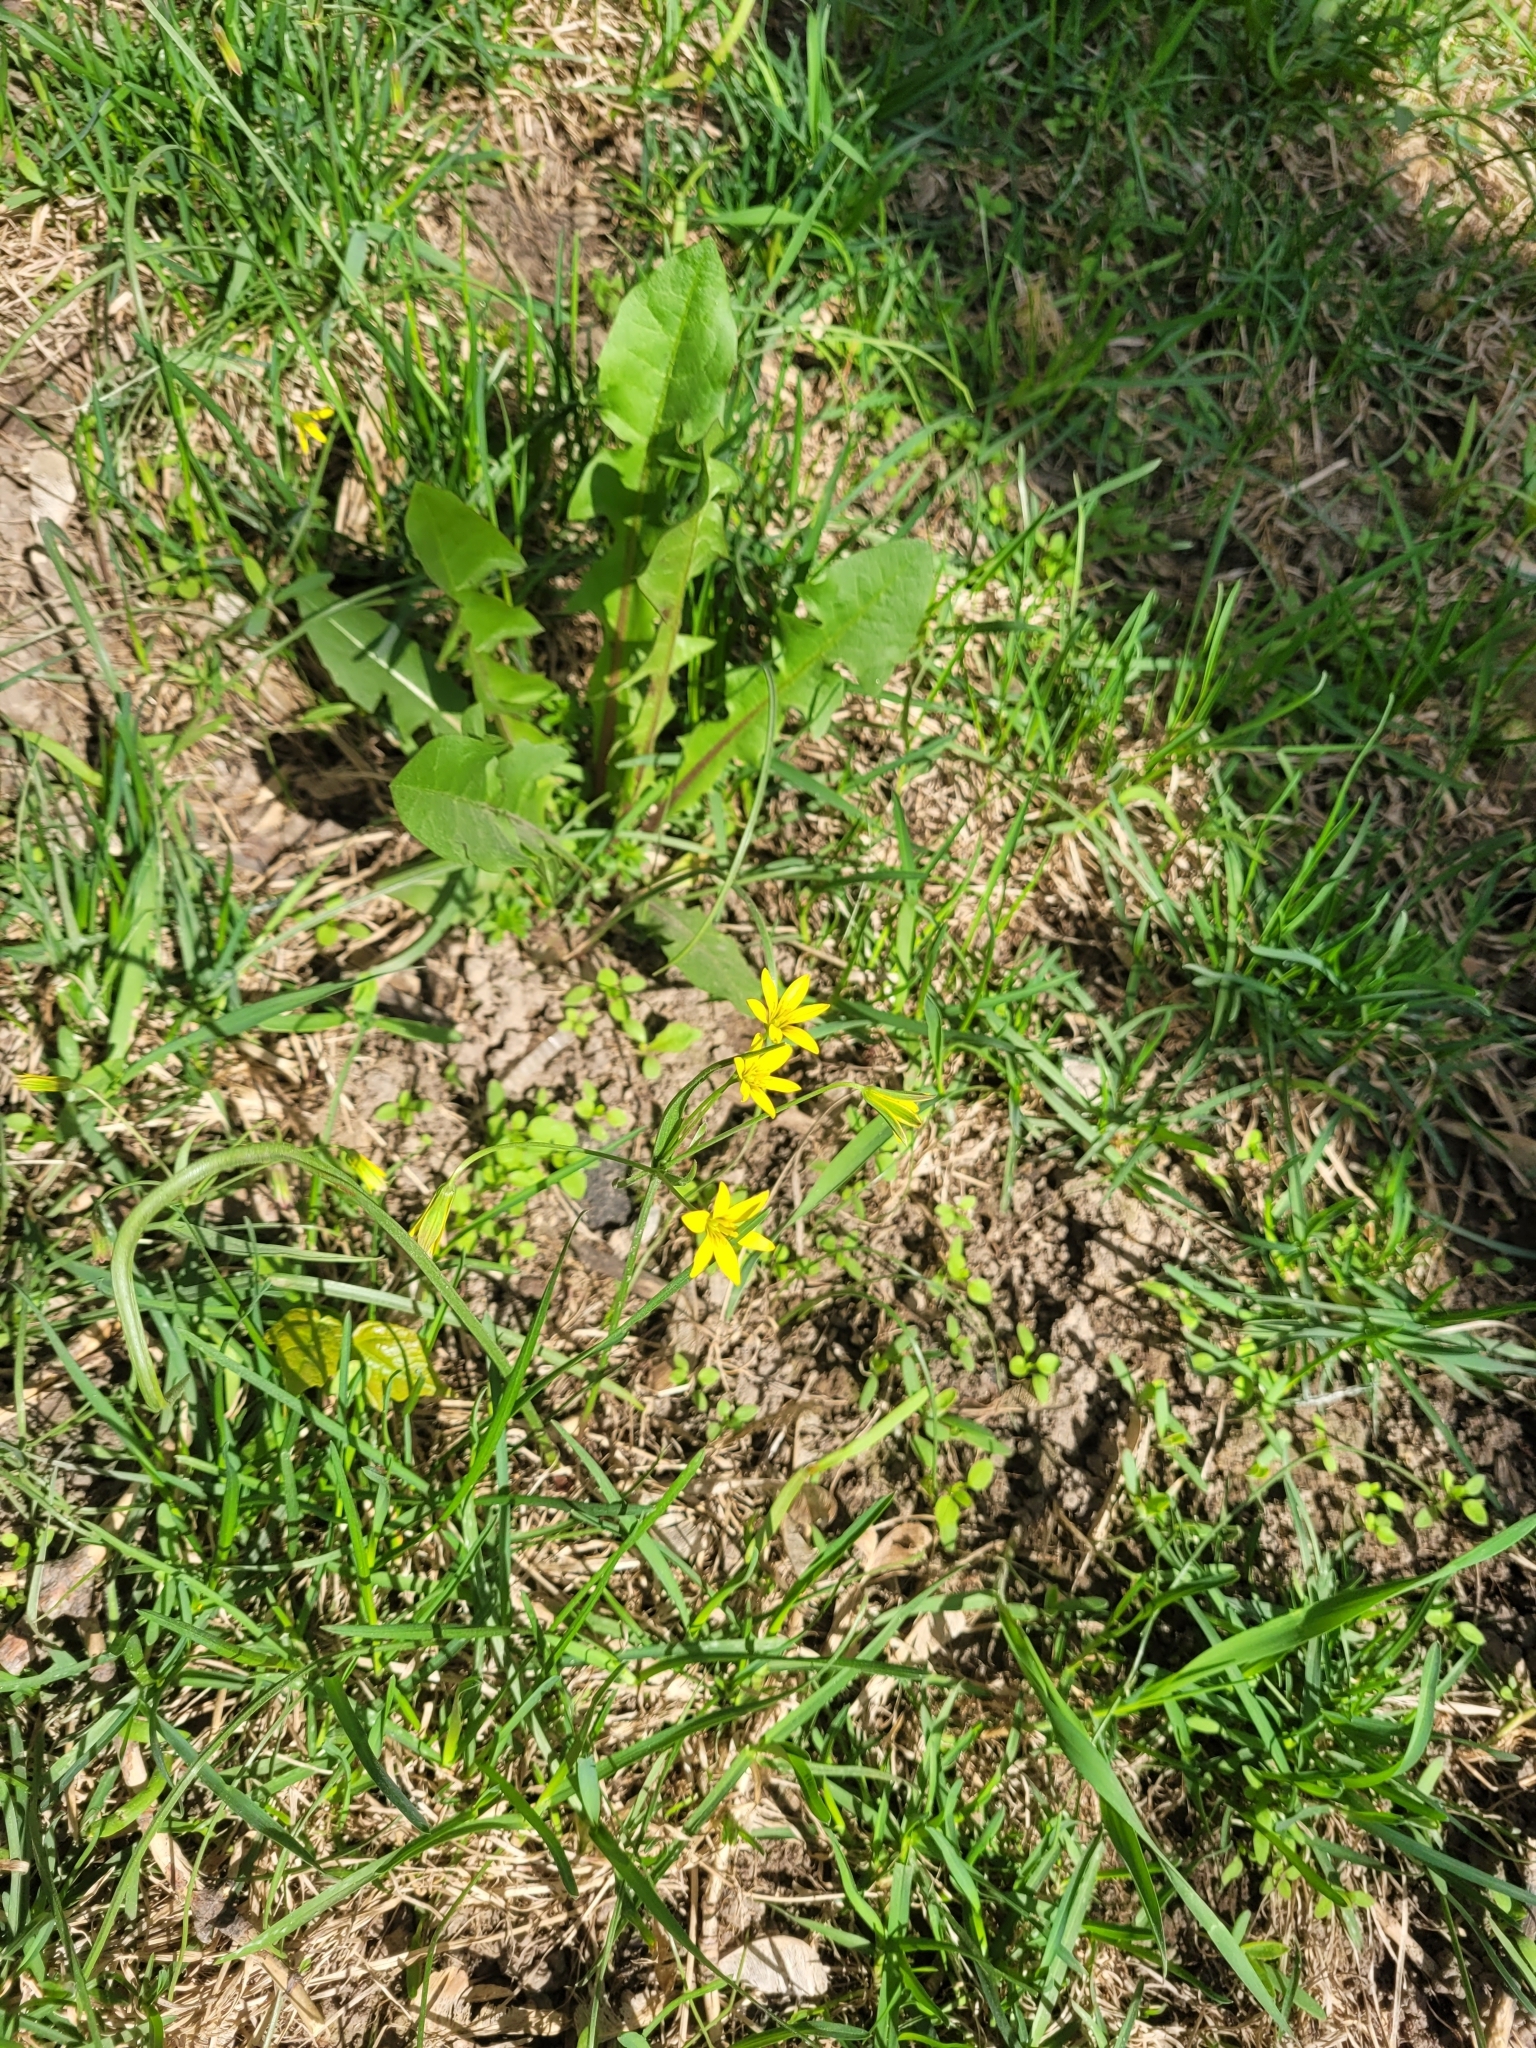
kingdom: Plantae
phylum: Tracheophyta
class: Liliopsida
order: Liliales
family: Liliaceae
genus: Gagea
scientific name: Gagea fragifera
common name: Lily
